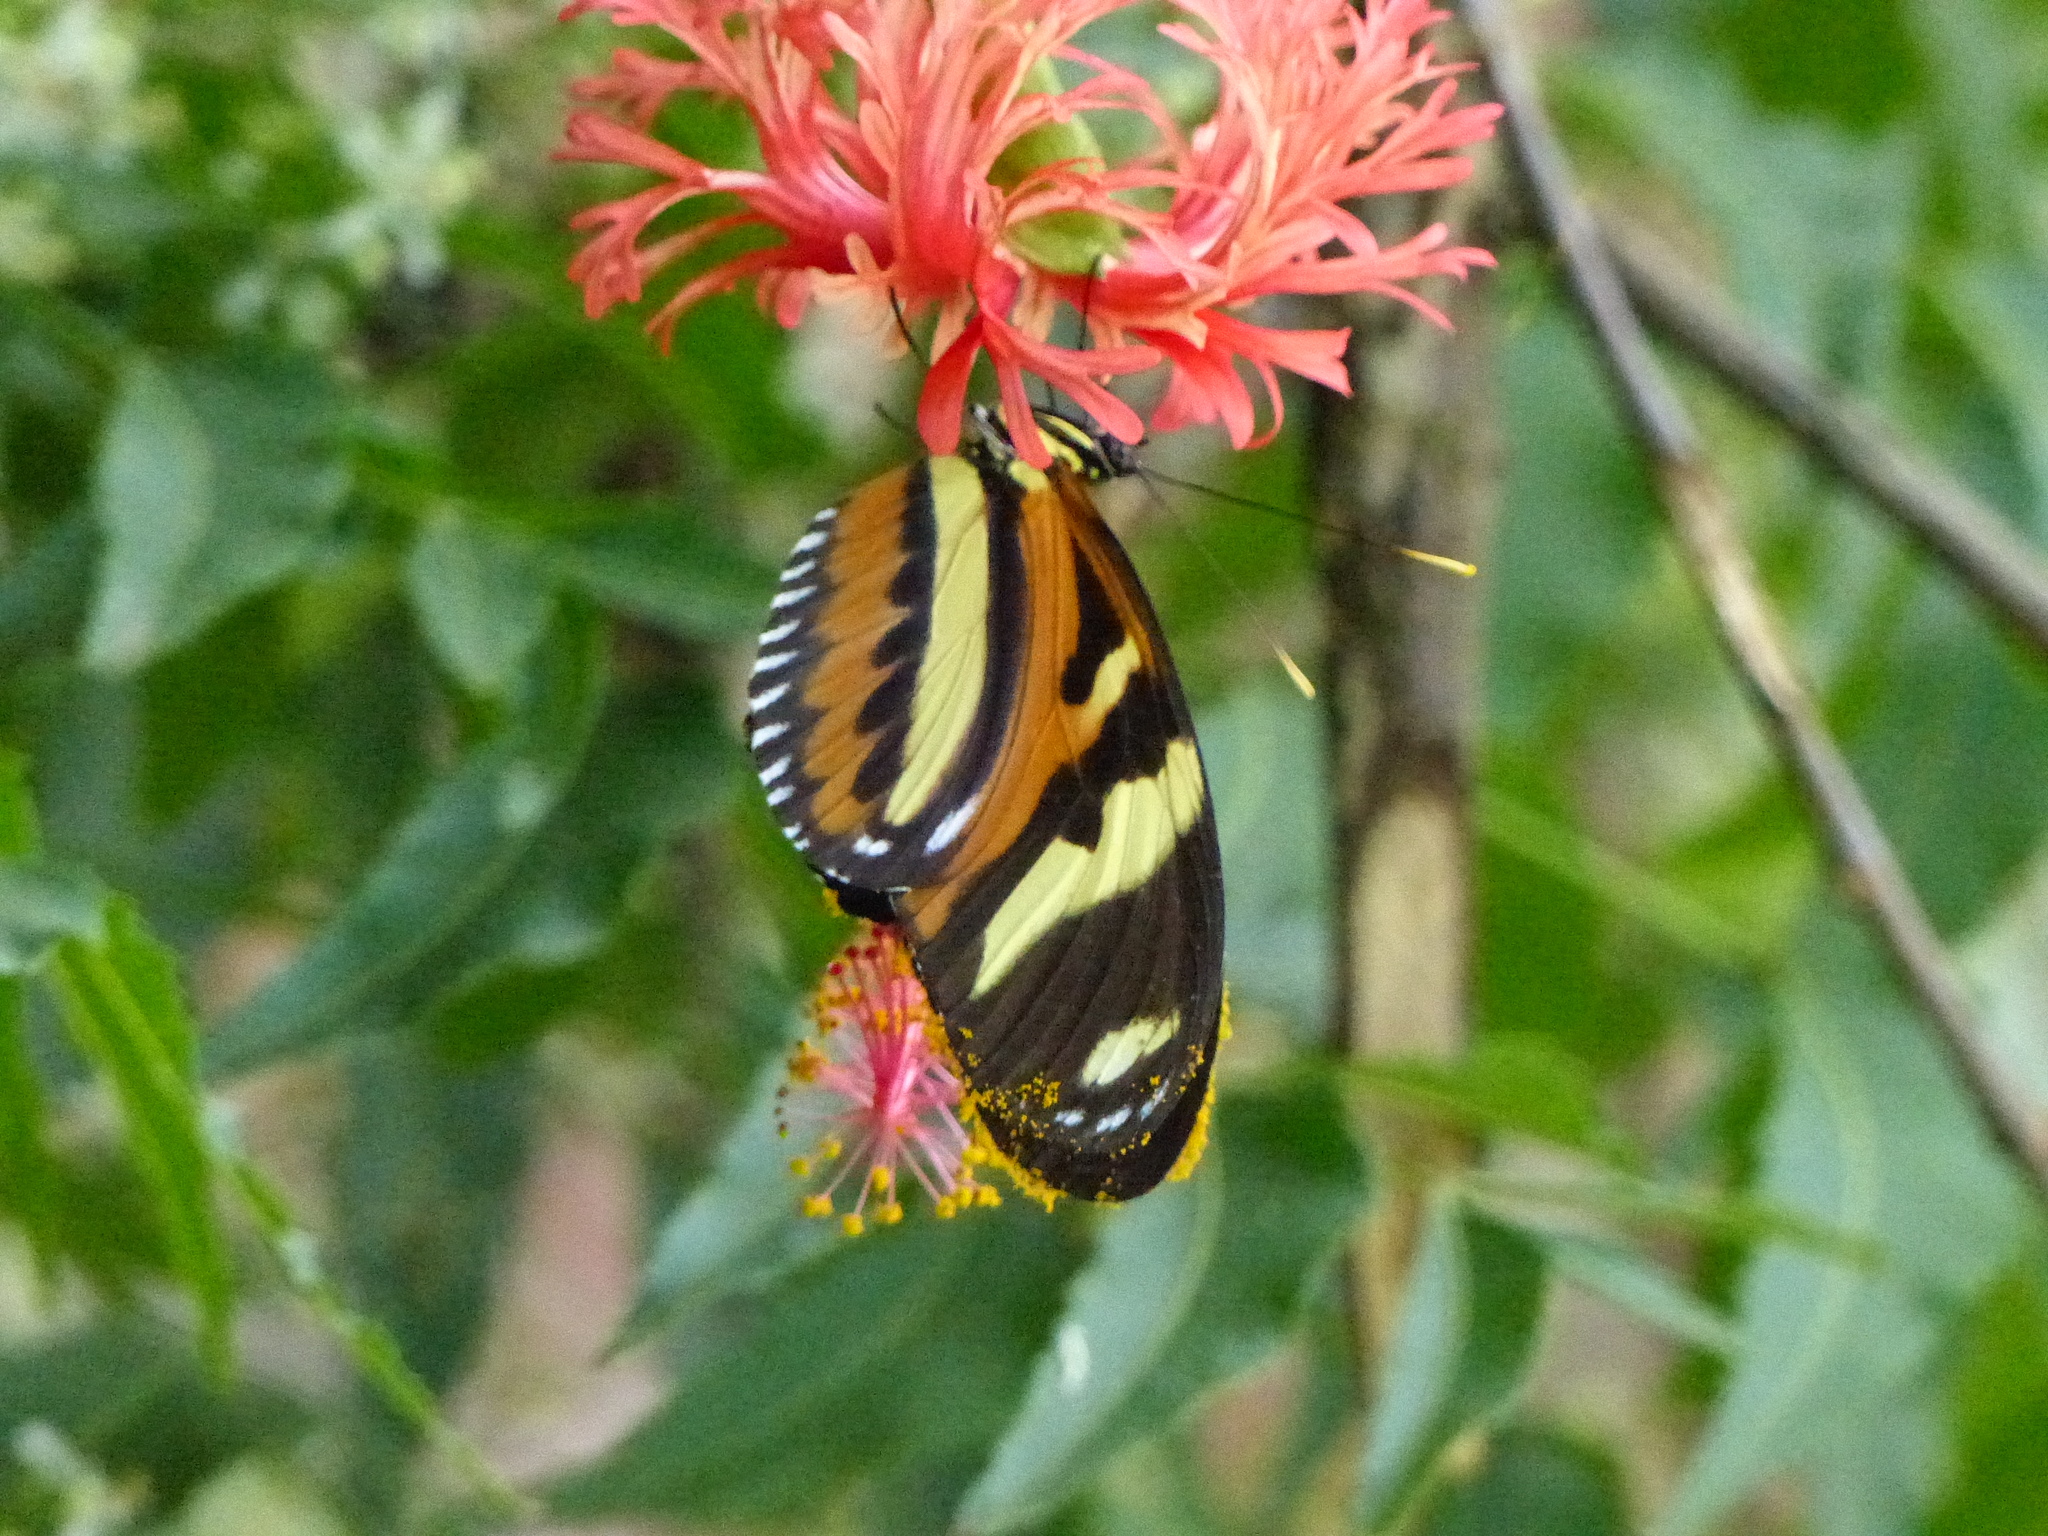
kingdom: Animalia
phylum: Arthropoda
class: Insecta
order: Lepidoptera
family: Nymphalidae
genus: Heliconius
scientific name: Heliconius ethilla
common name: Ethilia longwing
